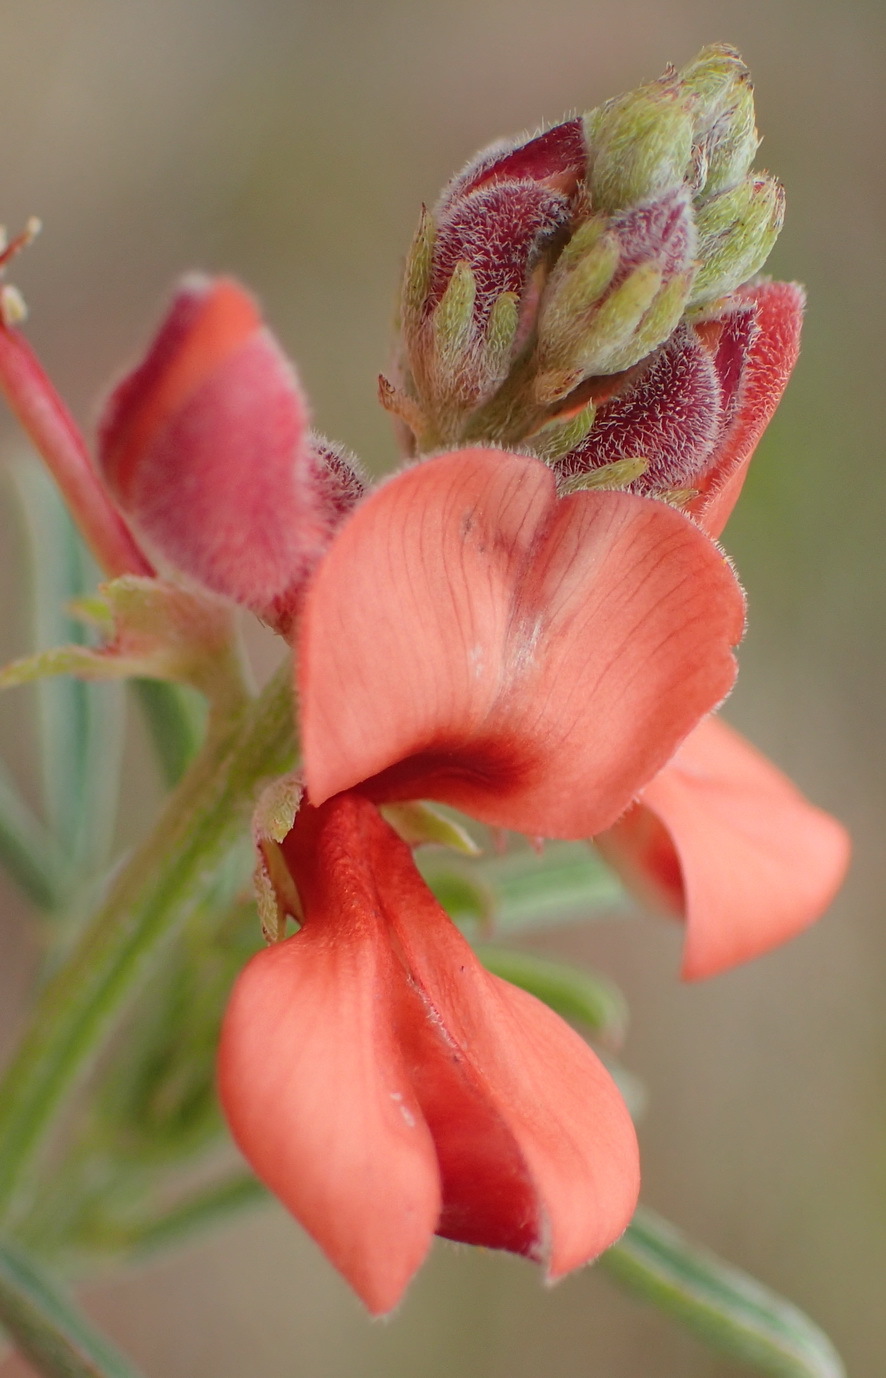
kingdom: Plantae
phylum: Tracheophyta
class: Magnoliopsida
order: Fabales
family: Fabaceae
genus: Indigofera
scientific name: Indigofera candicans
